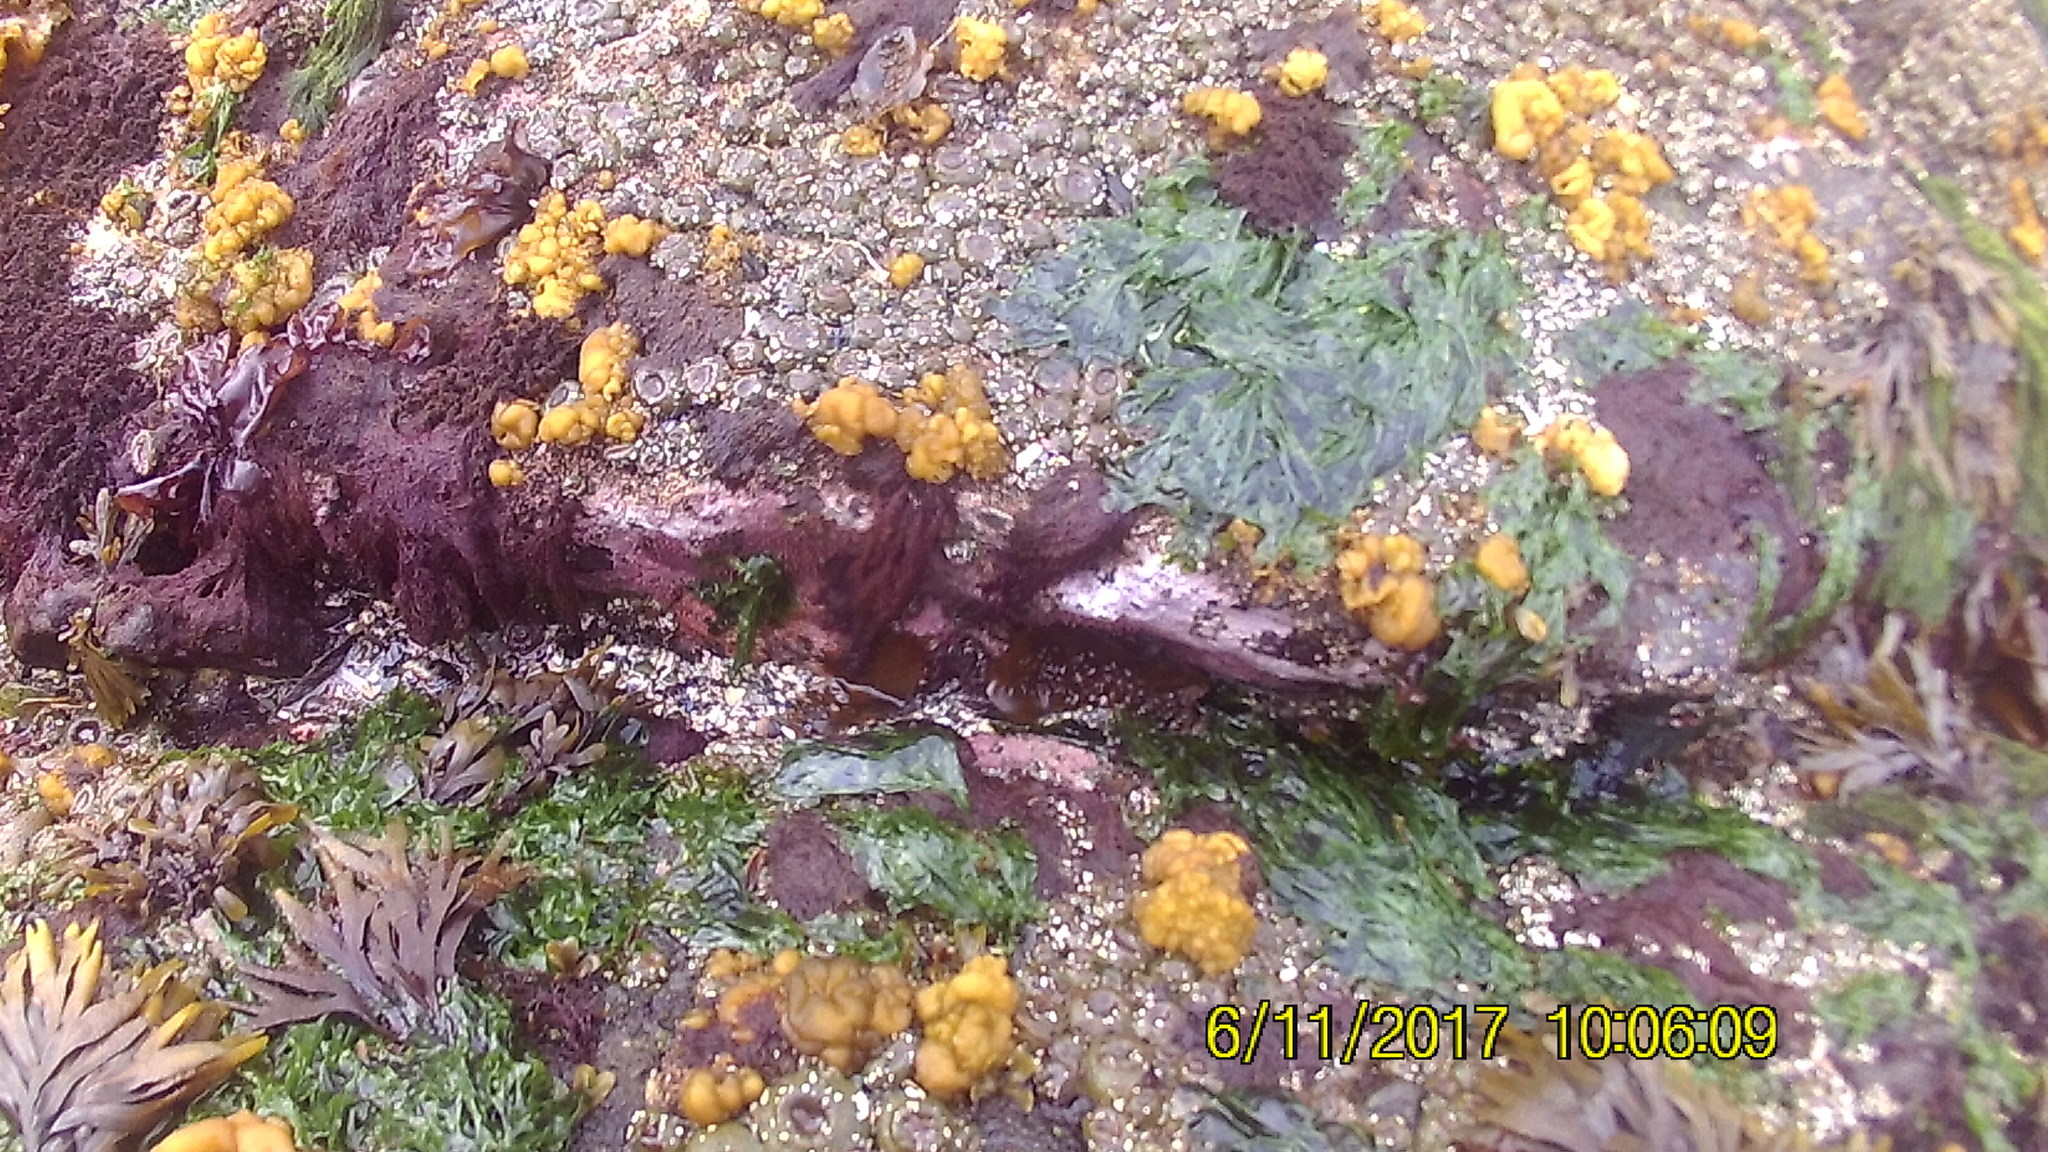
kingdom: Chromista
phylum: Ochrophyta
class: Phaeophyceae
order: Ectocarpales
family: Chordariaceae
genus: Leathesia
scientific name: Leathesia marina
